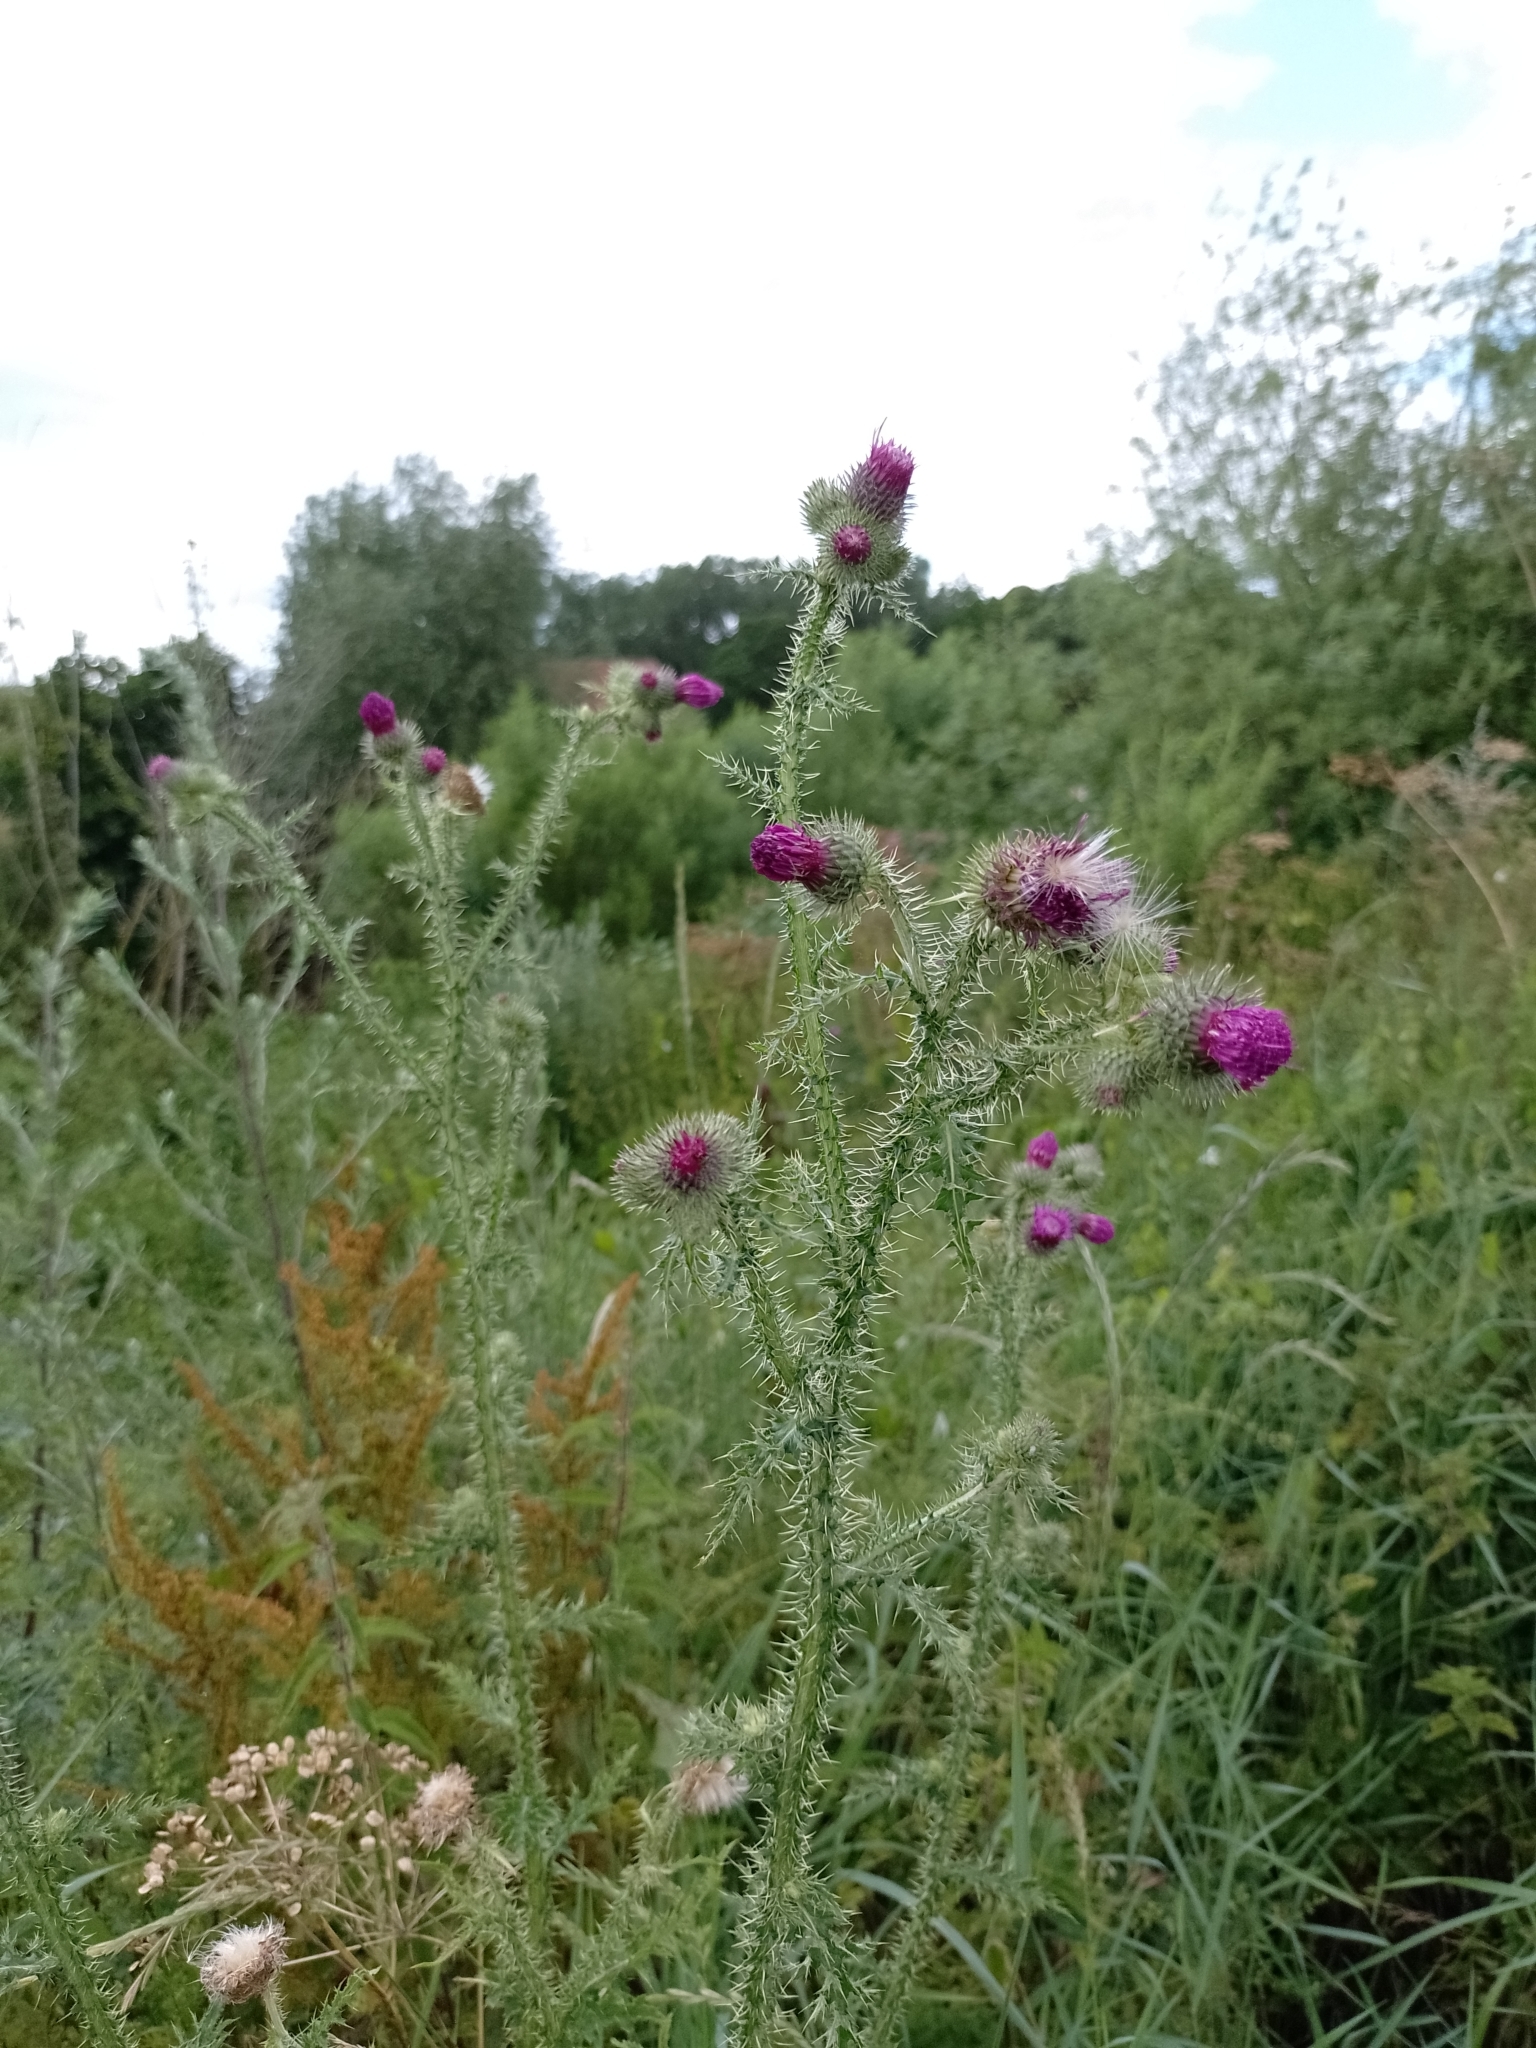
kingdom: Plantae
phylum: Tracheophyta
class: Magnoliopsida
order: Asterales
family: Asteraceae
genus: Carduus
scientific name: Carduus crispus
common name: Welted thistle
